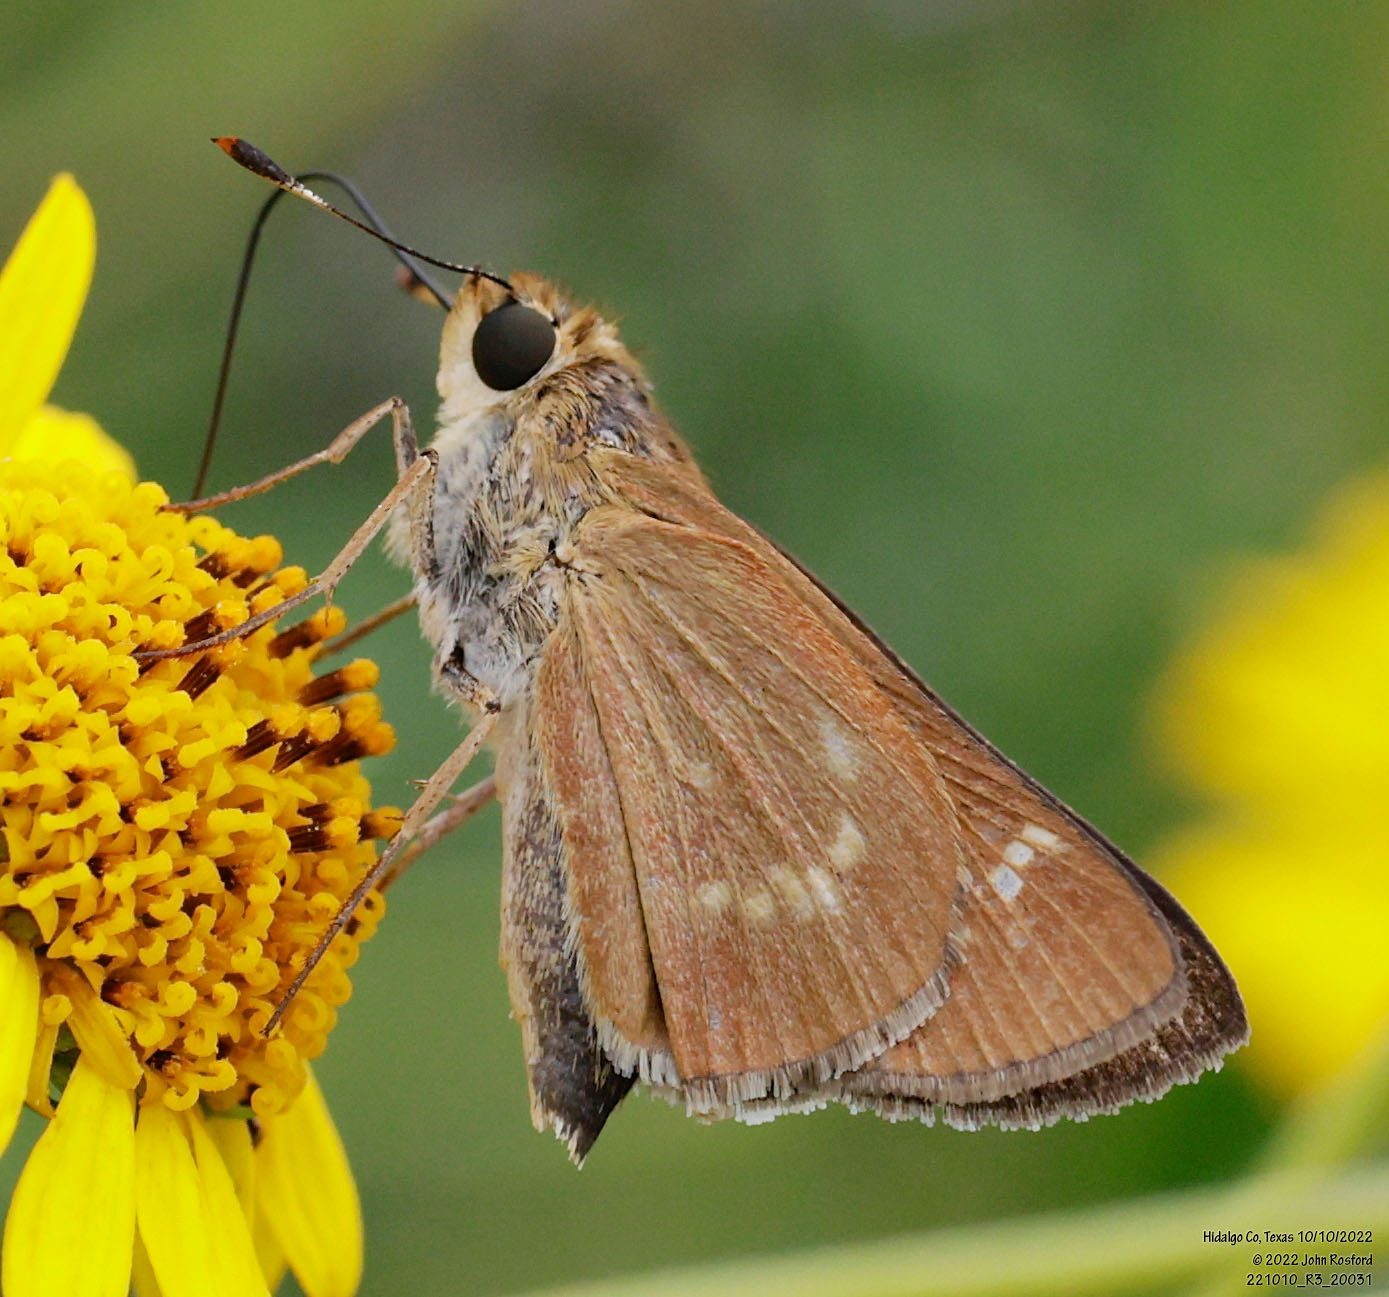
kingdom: Animalia
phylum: Arthropoda
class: Insecta
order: Lepidoptera
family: Hesperiidae
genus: Mellana
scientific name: Mellana eulogius
